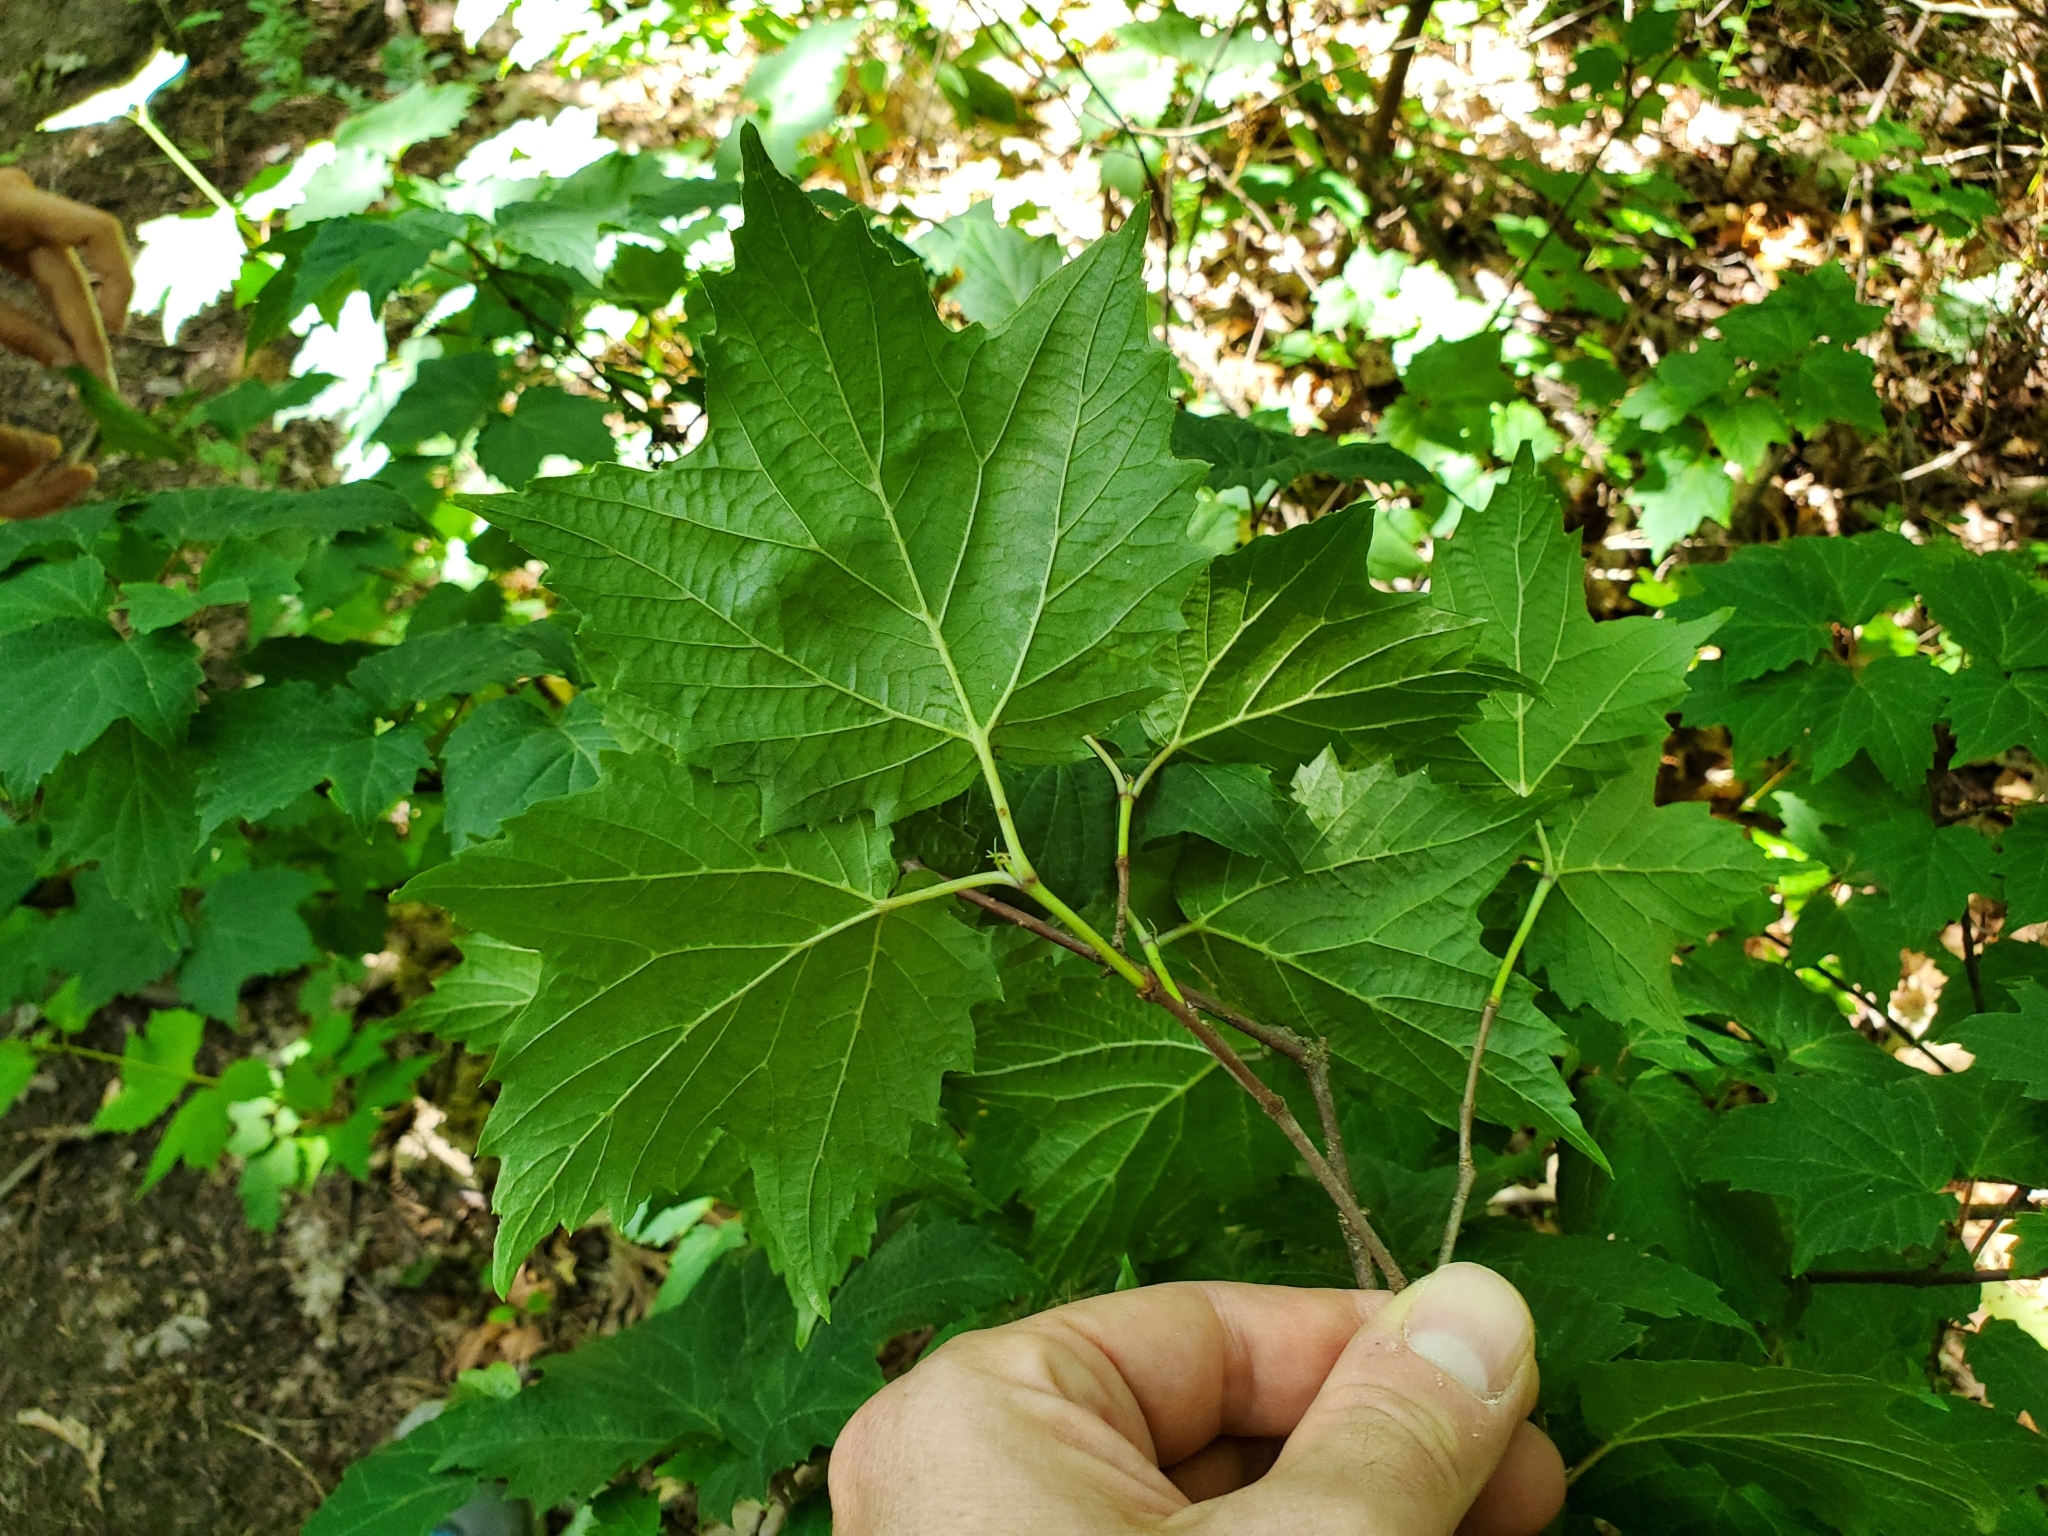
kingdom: Plantae
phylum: Tracheophyta
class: Magnoliopsida
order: Dipsacales
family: Viburnaceae
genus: Viburnum
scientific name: Viburnum acerifolium
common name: Dockmackie
